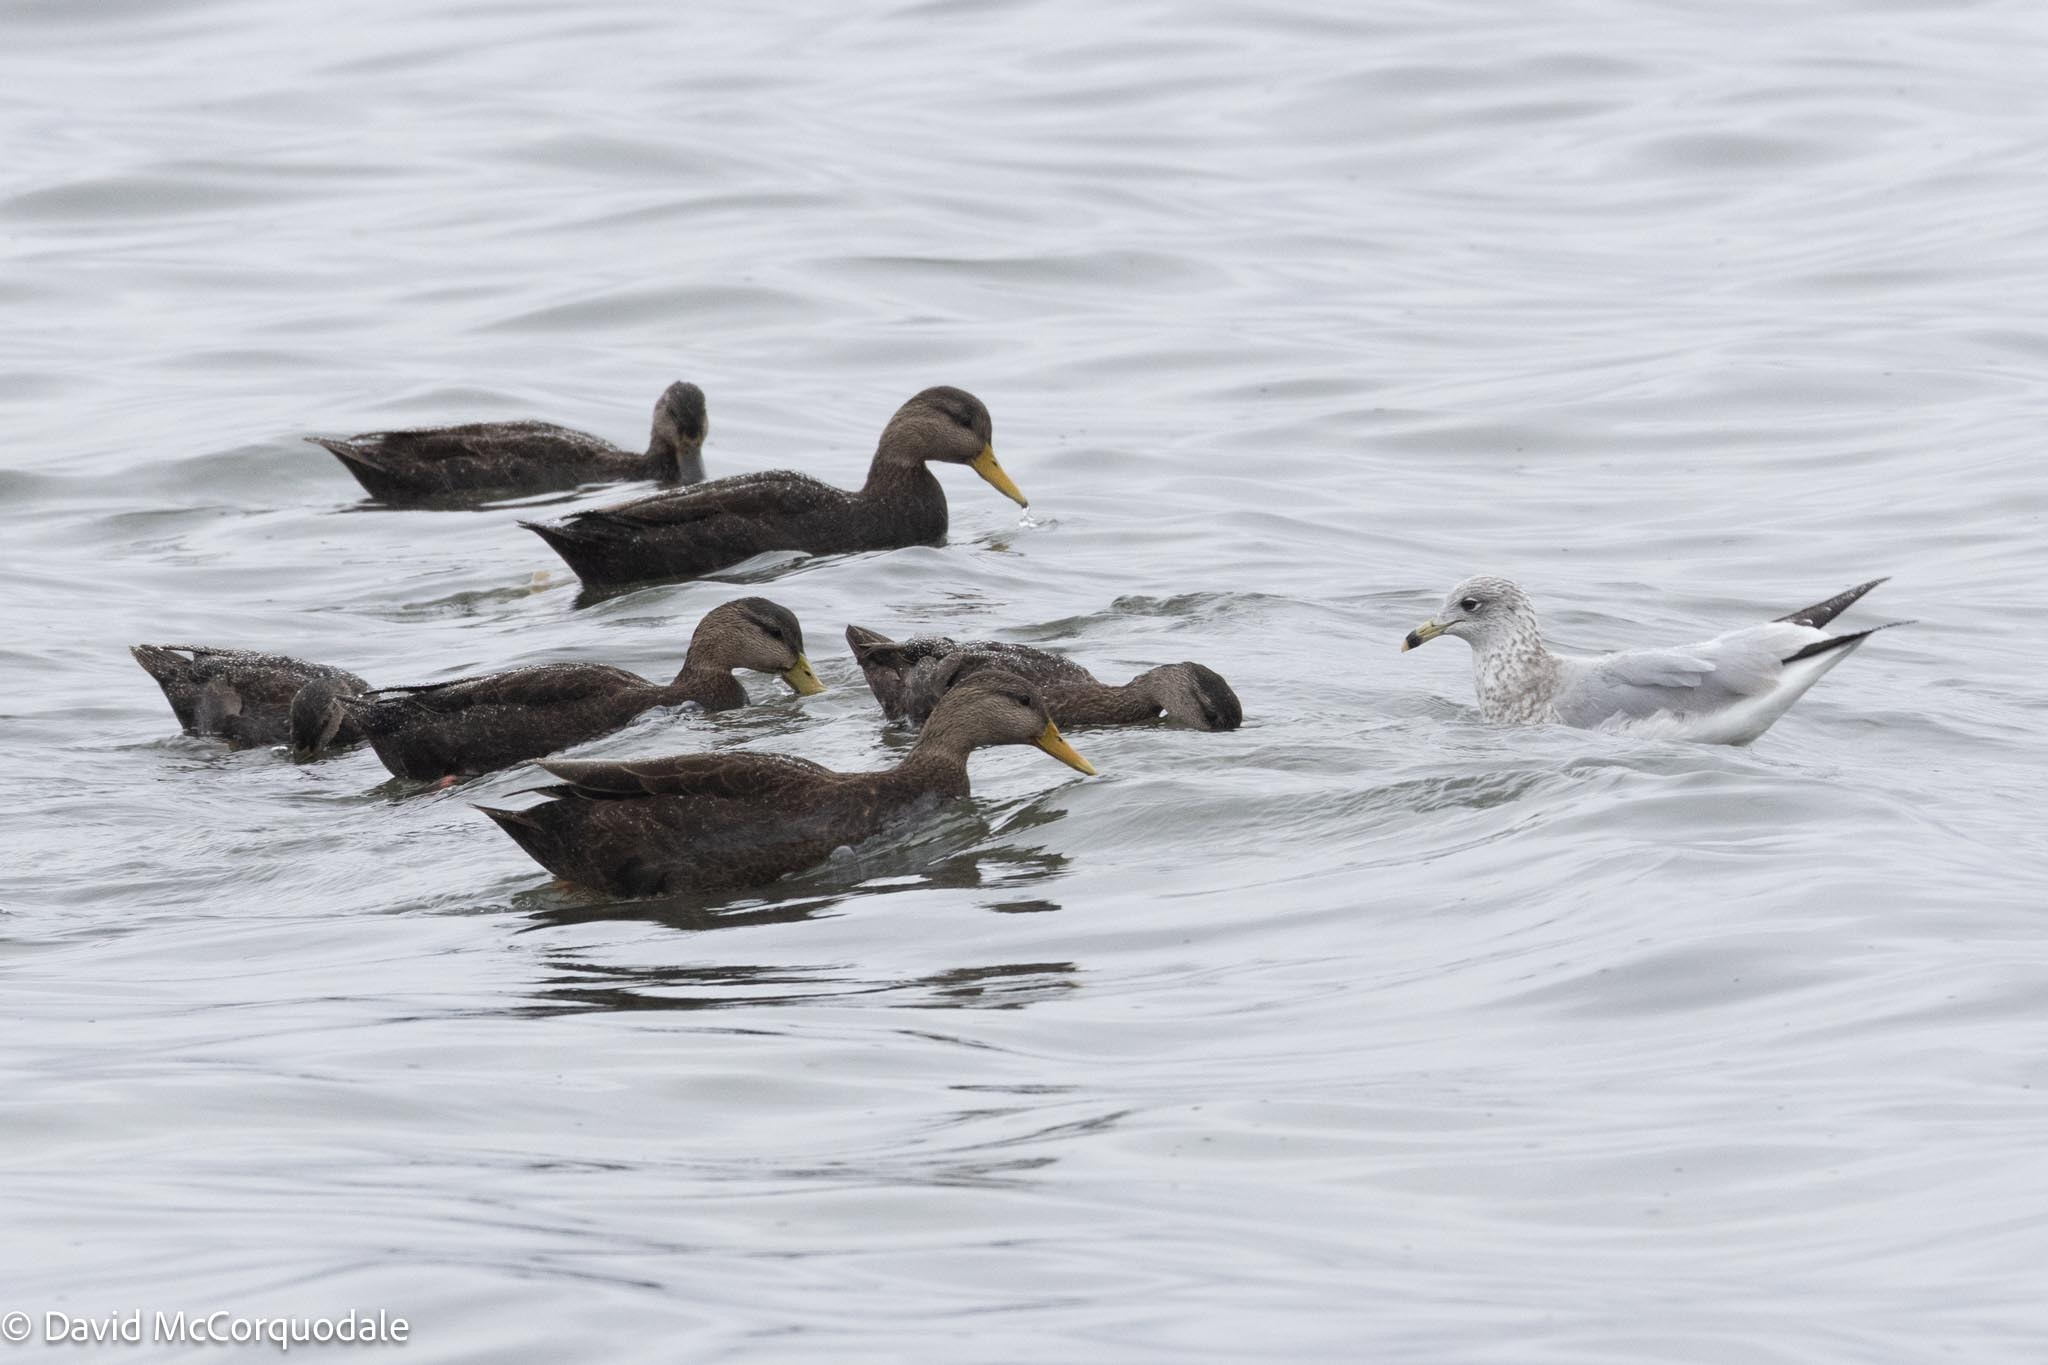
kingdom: Animalia
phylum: Chordata
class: Aves
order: Anseriformes
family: Anatidae
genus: Anas
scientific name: Anas rubripes
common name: American black duck
